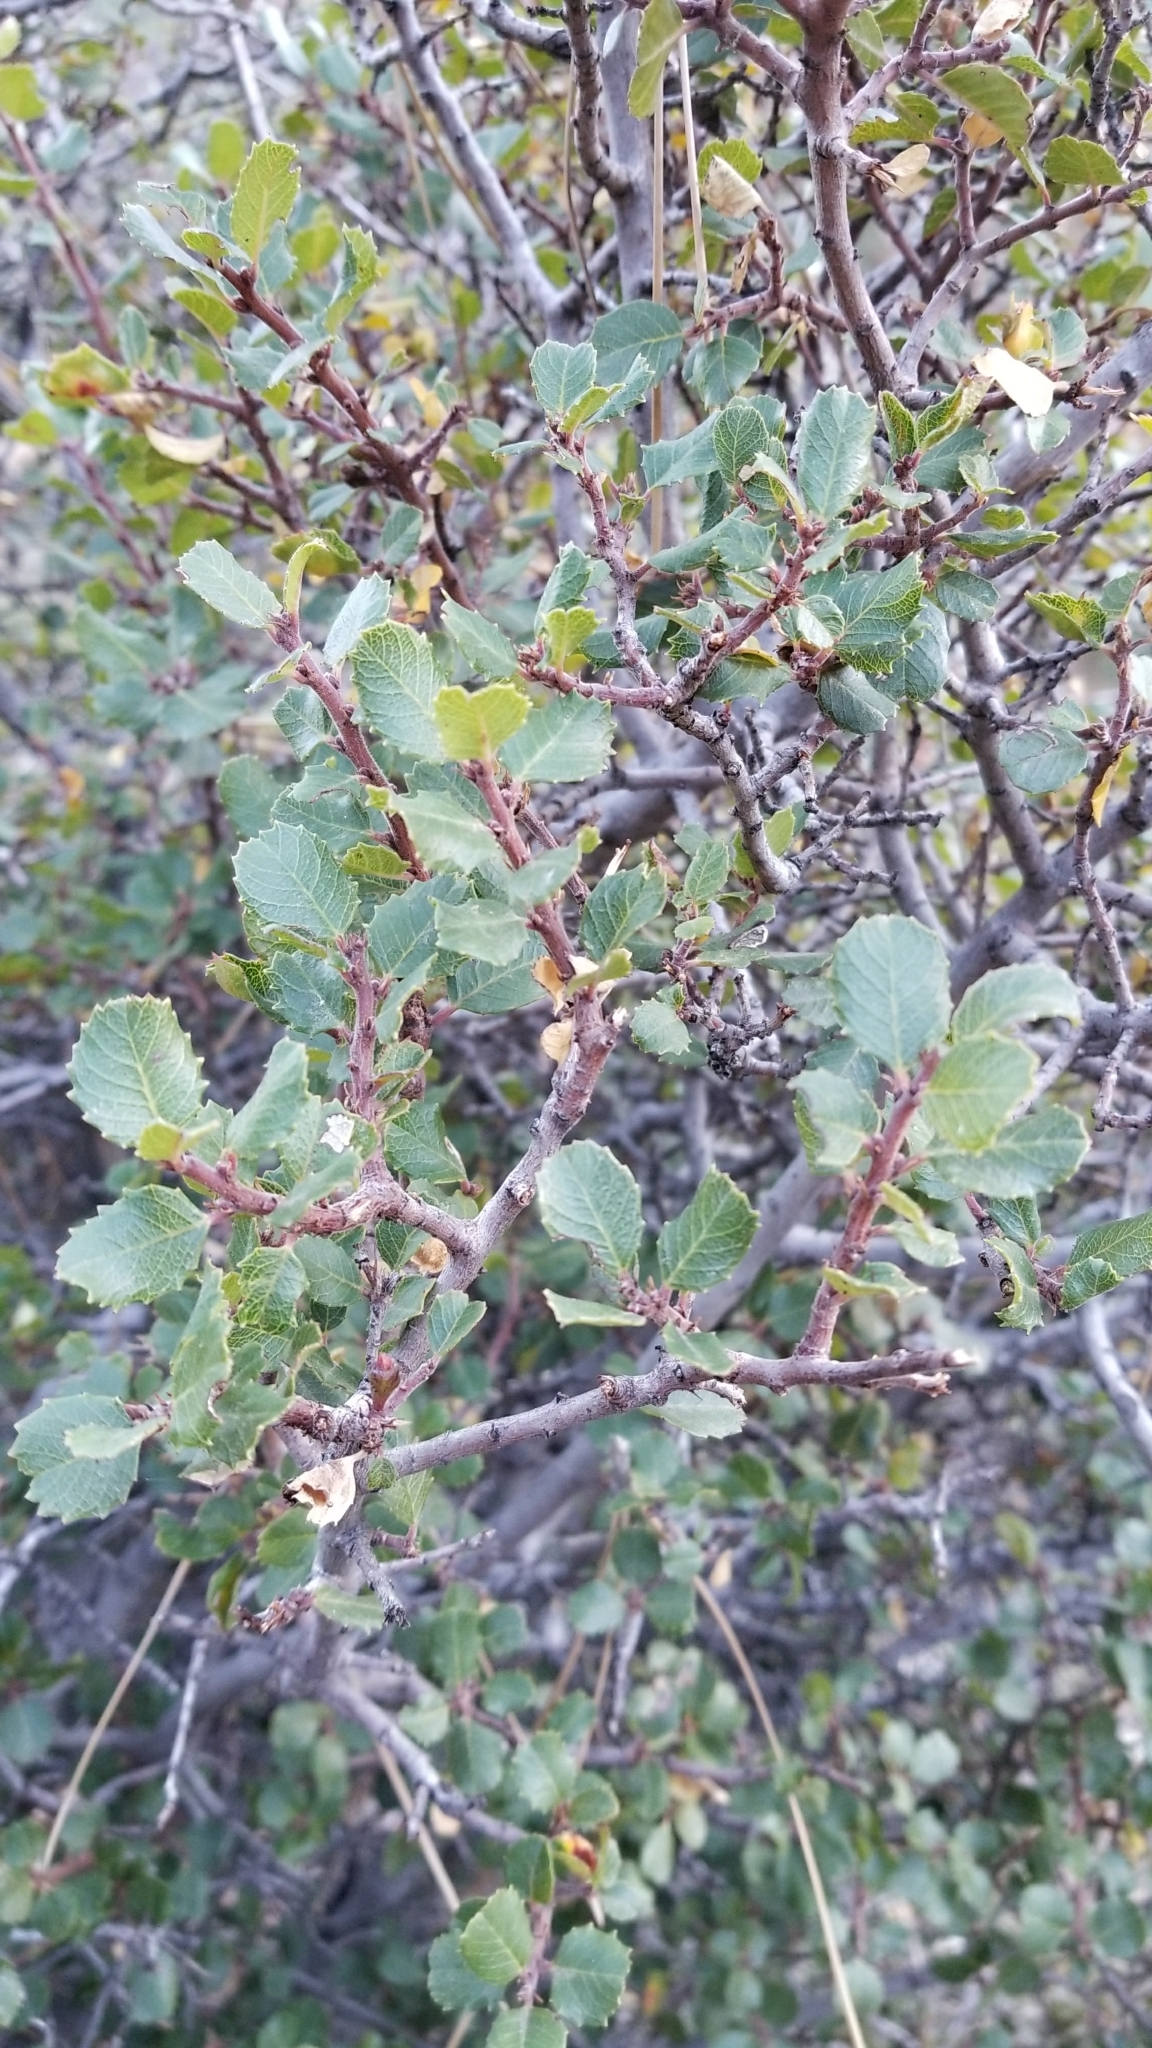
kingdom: Plantae
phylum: Tracheophyta
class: Magnoliopsida
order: Rosales
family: Rhamnaceae
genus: Endotropis
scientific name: Endotropis crocea
